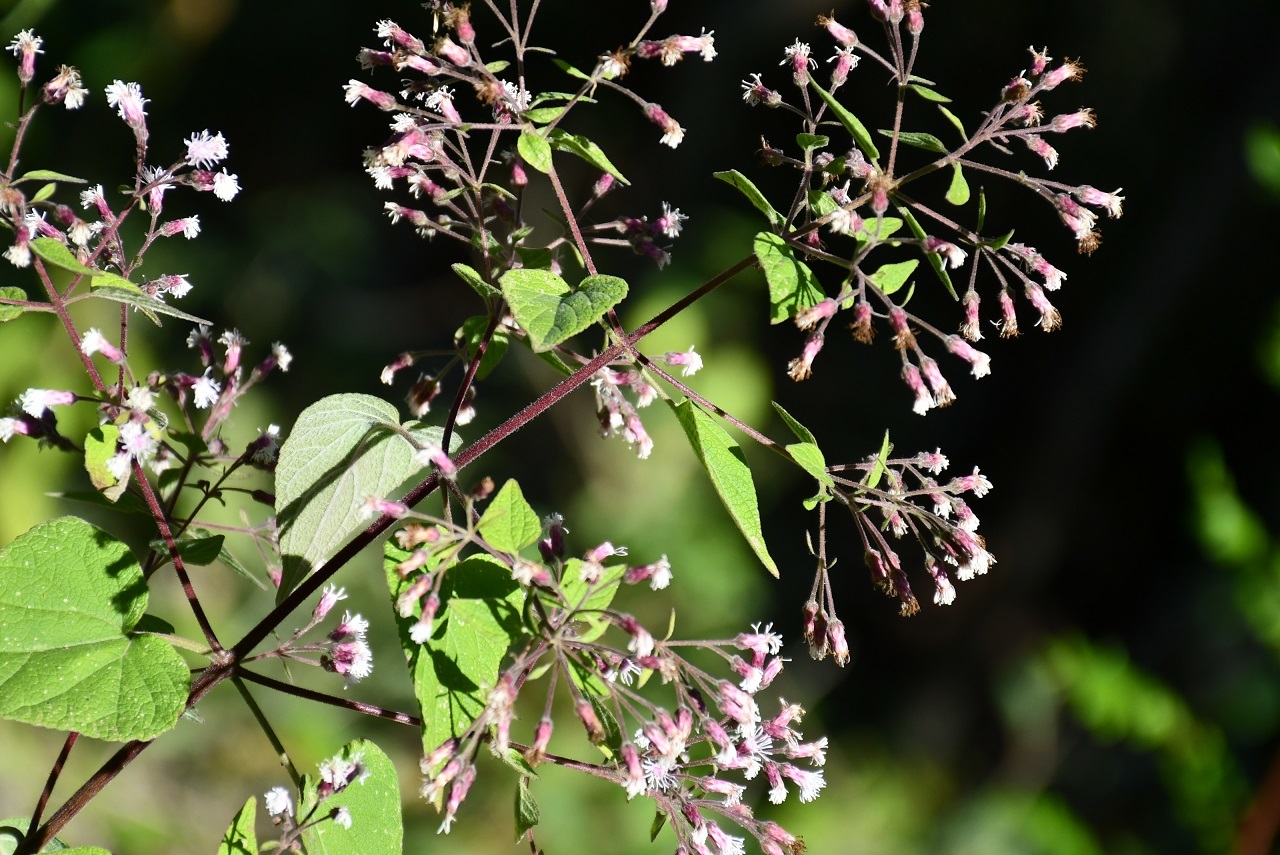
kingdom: Plantae
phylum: Tracheophyta
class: Magnoliopsida
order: Asterales
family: Asteraceae
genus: Peteravenia
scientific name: Peteravenia schultzii
